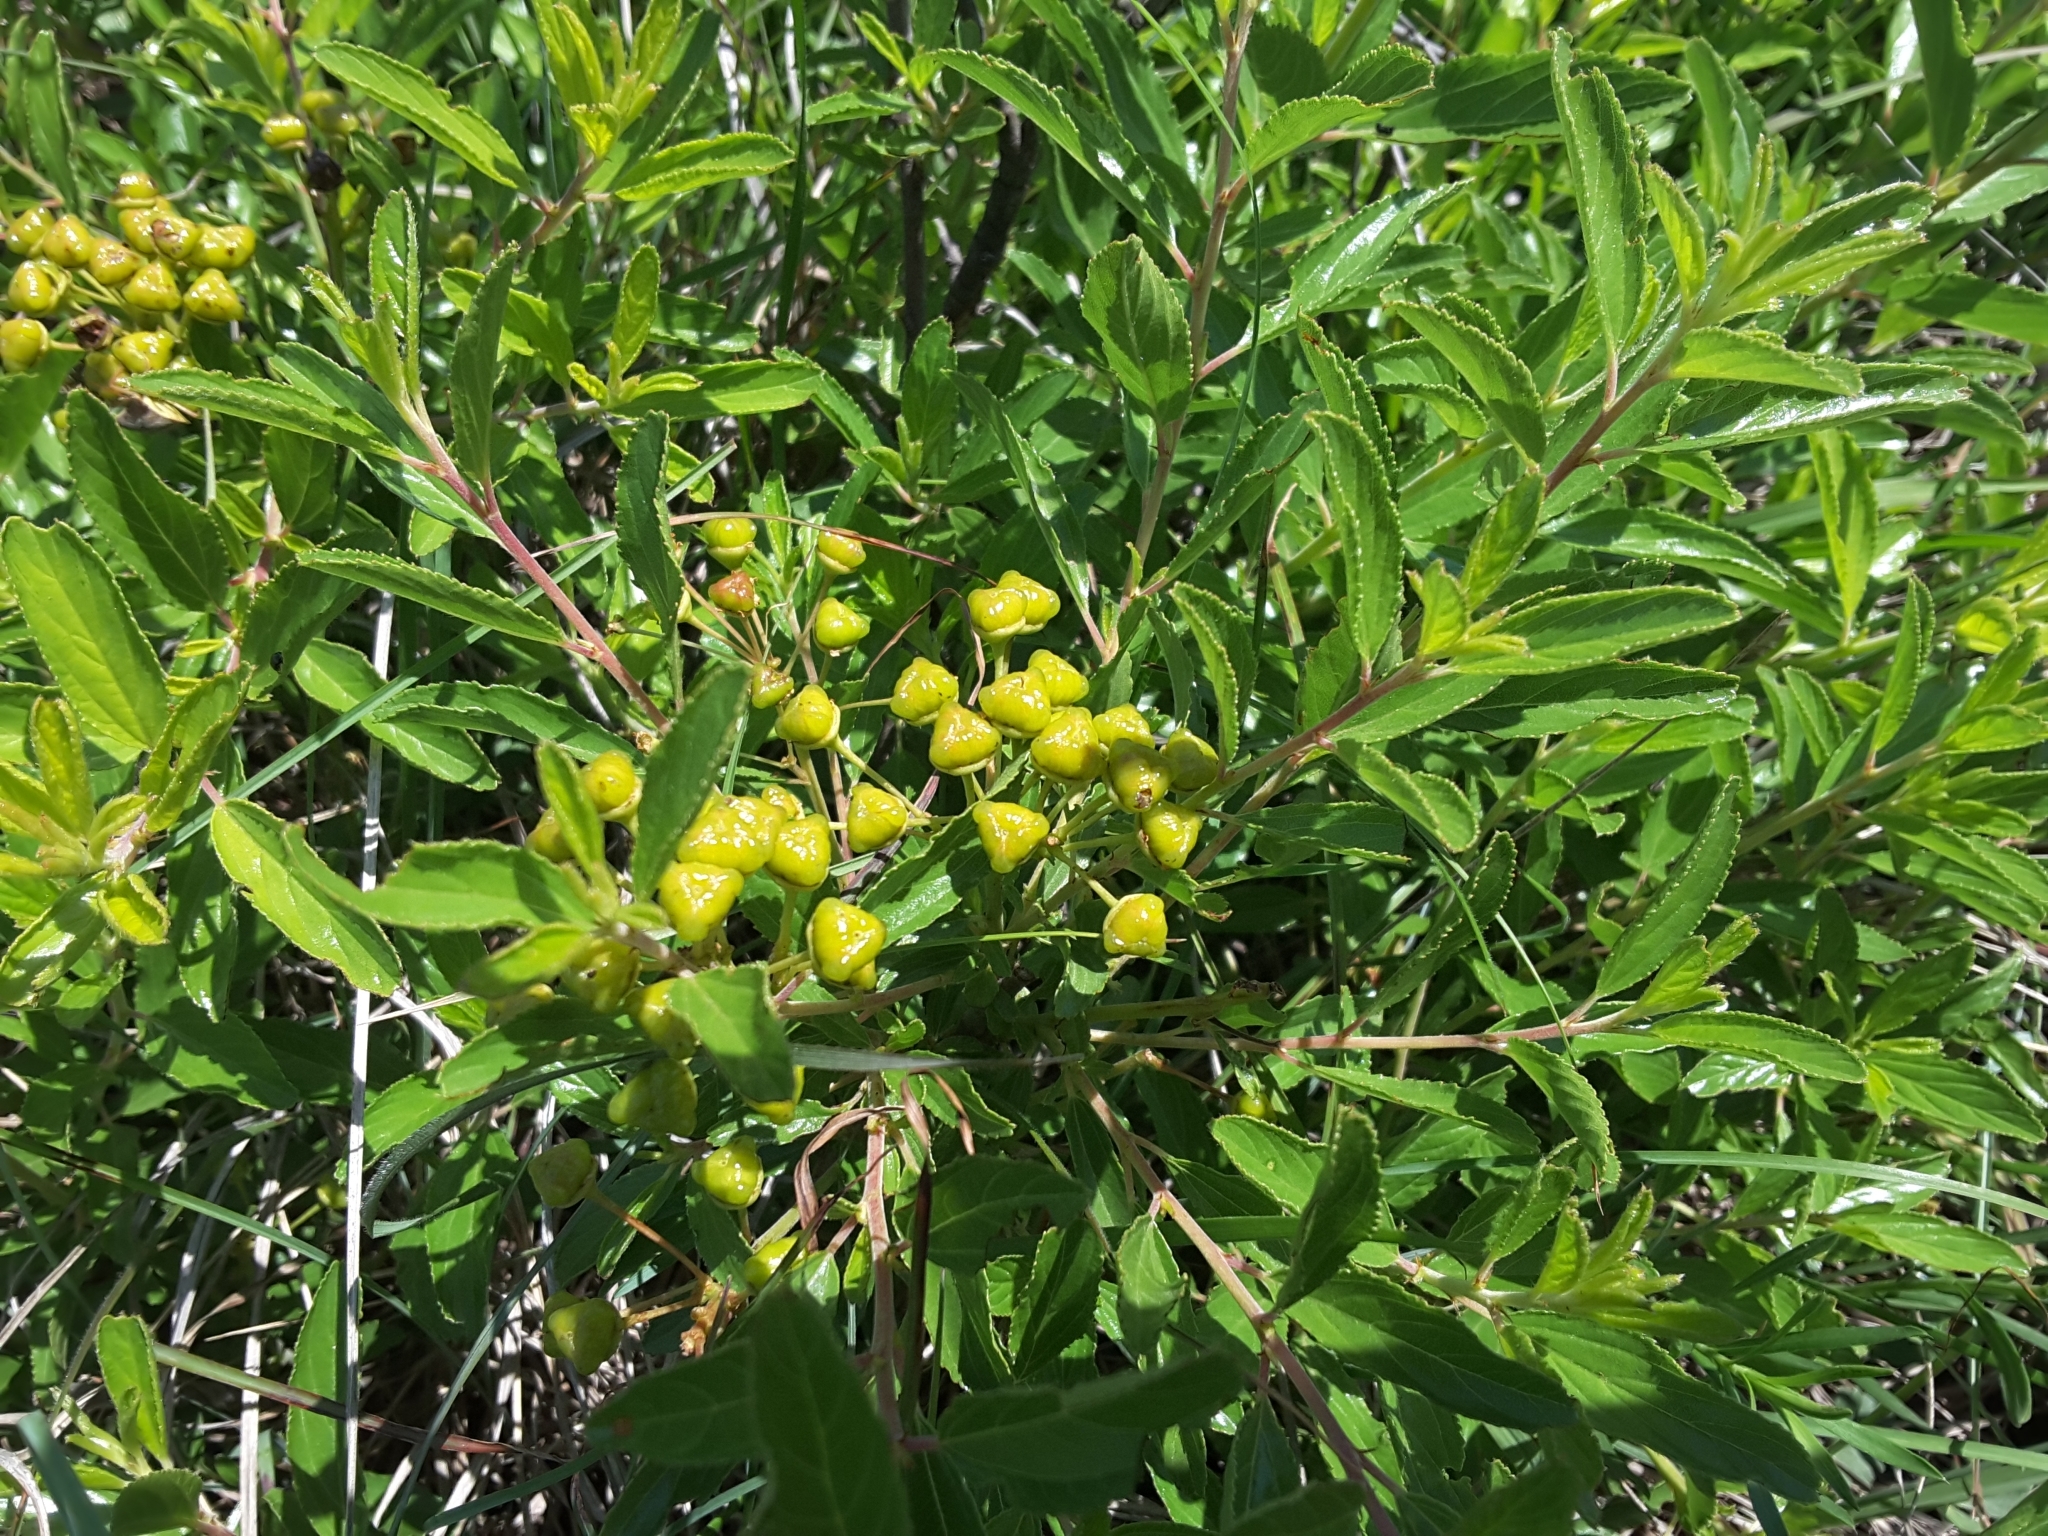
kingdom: Plantae
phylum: Tracheophyta
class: Magnoliopsida
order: Rosales
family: Rhamnaceae
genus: Ceanothus
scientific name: Ceanothus herbaceus
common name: Inland ceanothus
